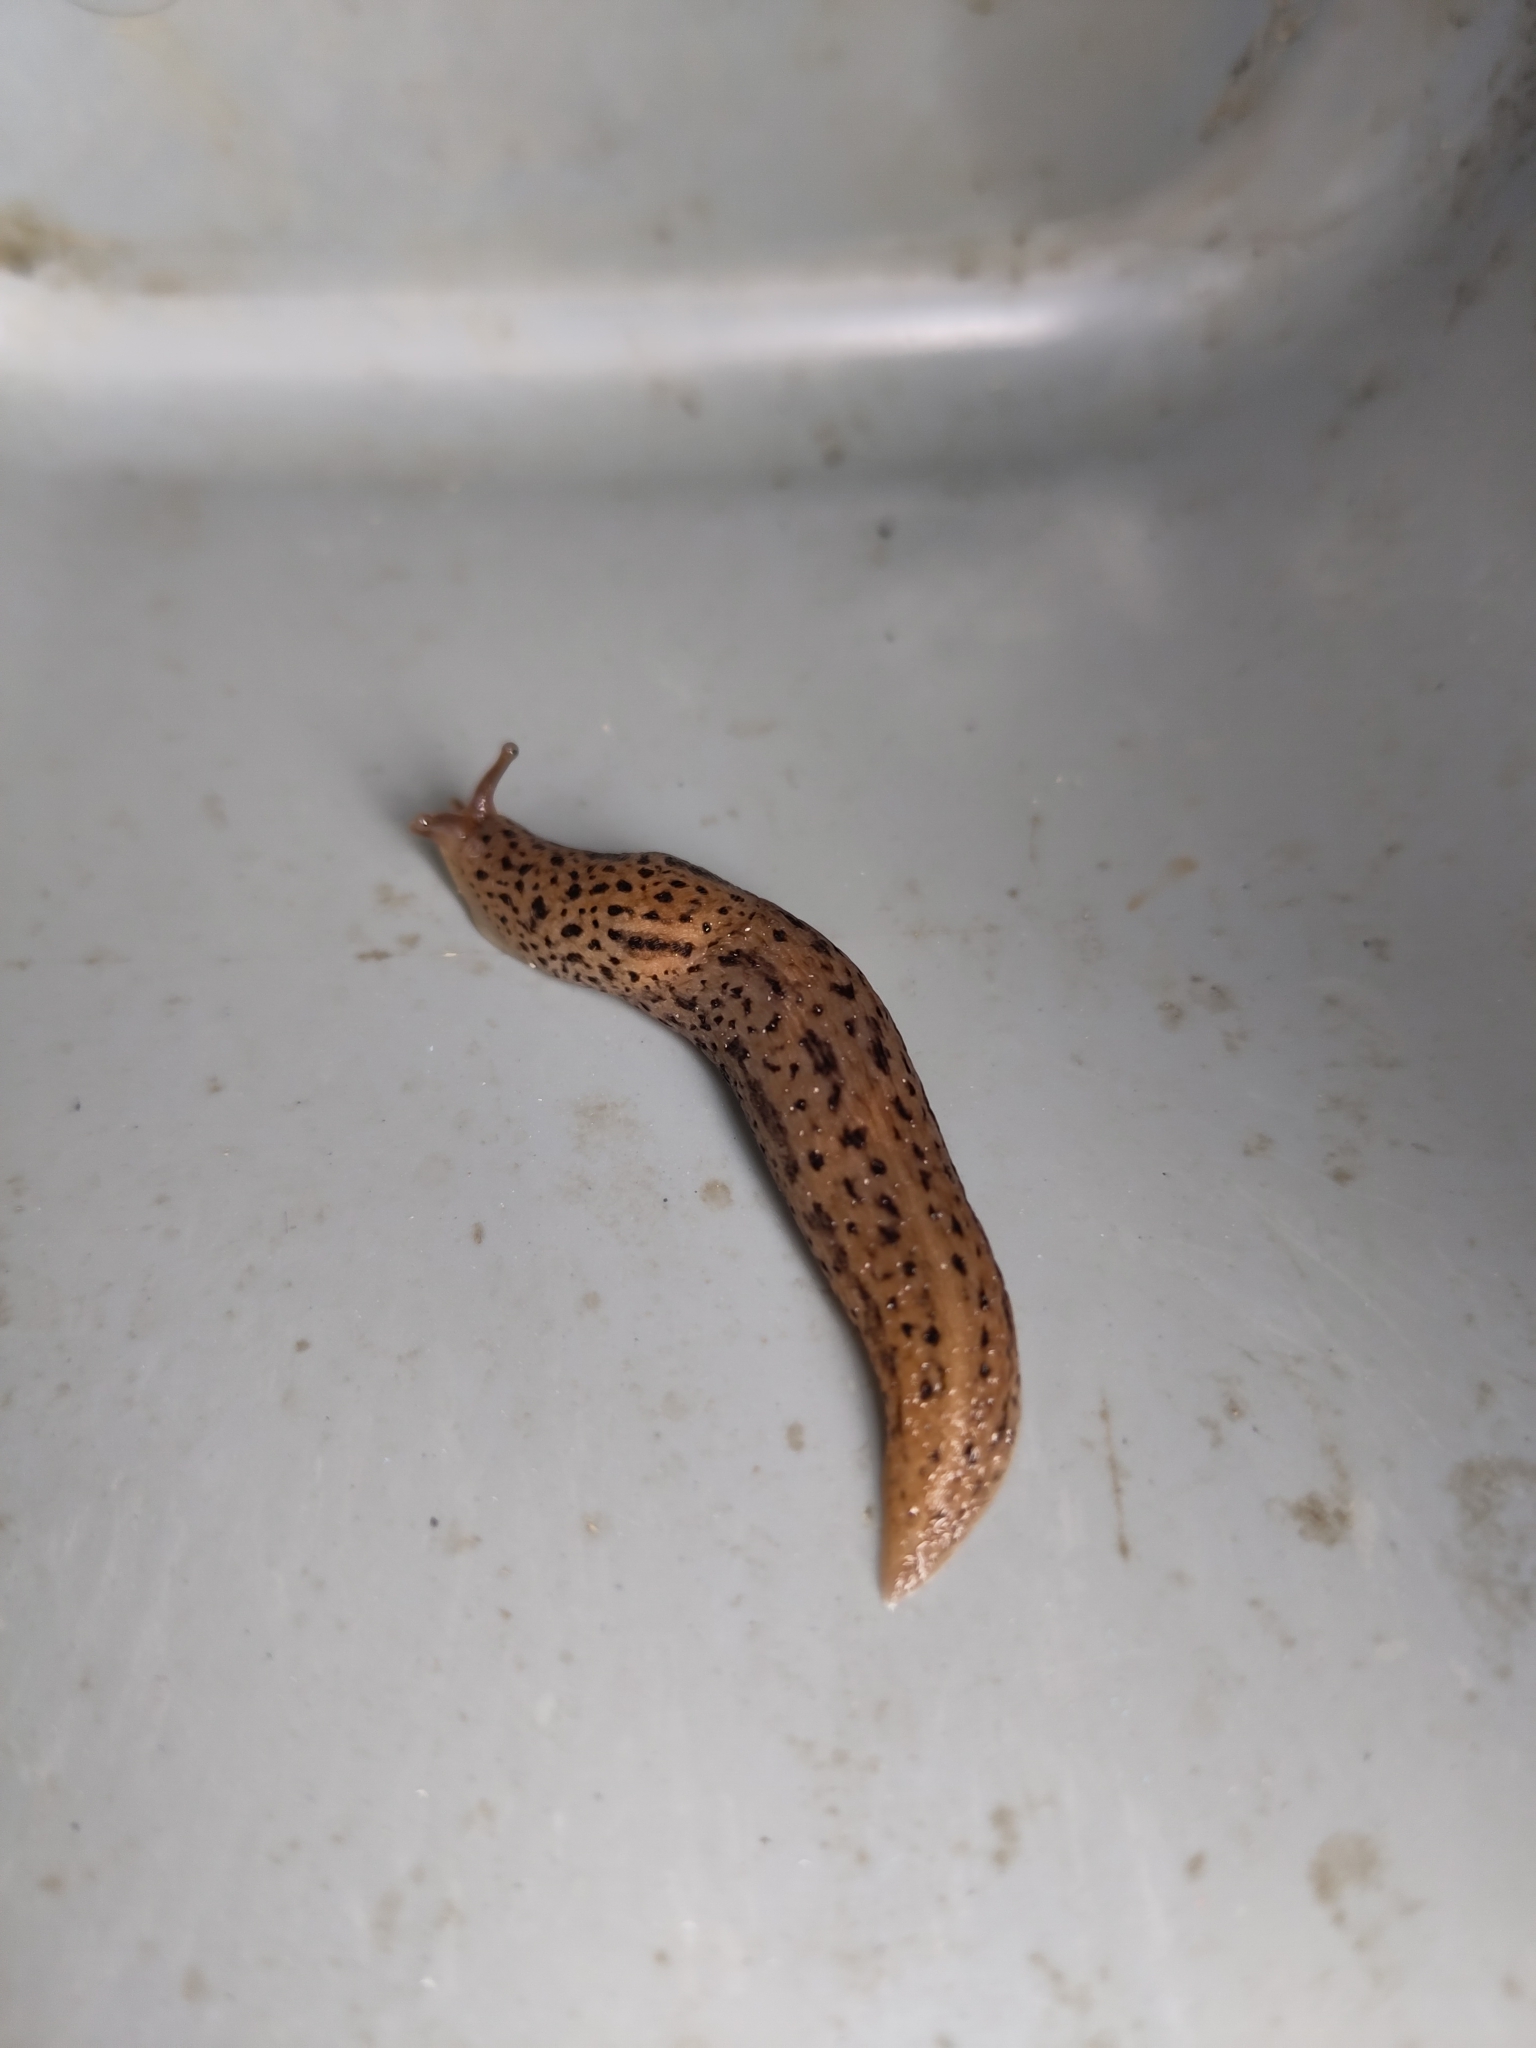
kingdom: Animalia
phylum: Mollusca
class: Gastropoda
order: Stylommatophora
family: Limacidae
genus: Limax
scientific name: Limax maximus
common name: Great grey slug
